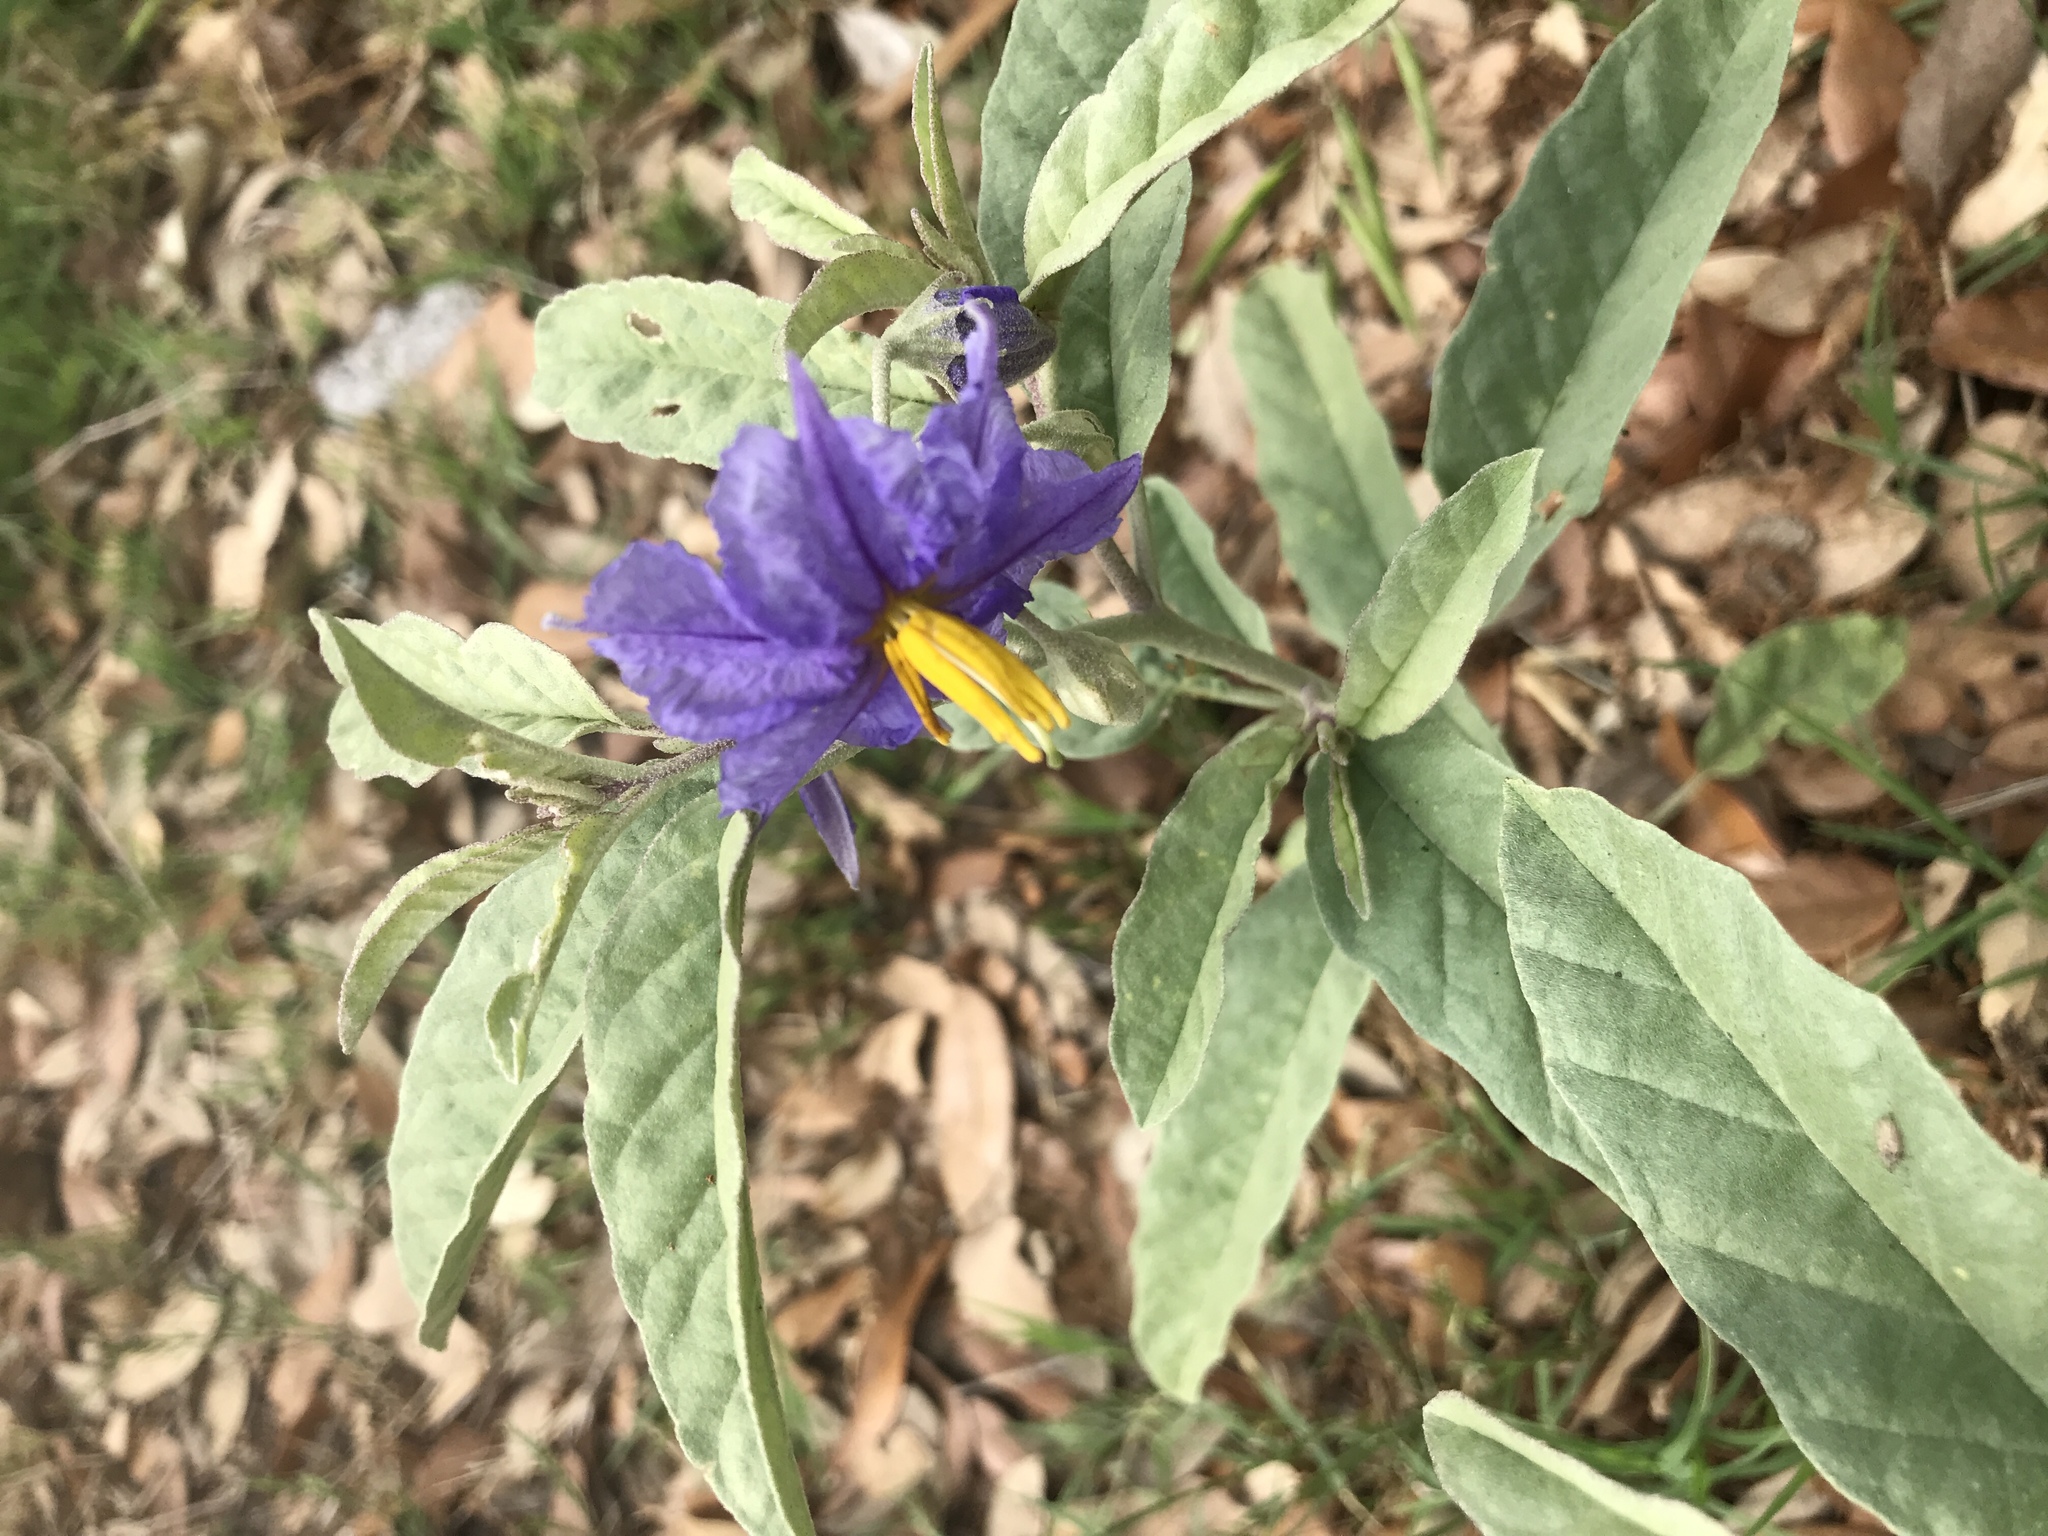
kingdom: Plantae
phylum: Tracheophyta
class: Magnoliopsida
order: Solanales
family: Solanaceae
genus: Solanum
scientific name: Solanum elaeagnifolium
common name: Silverleaf nightshade
